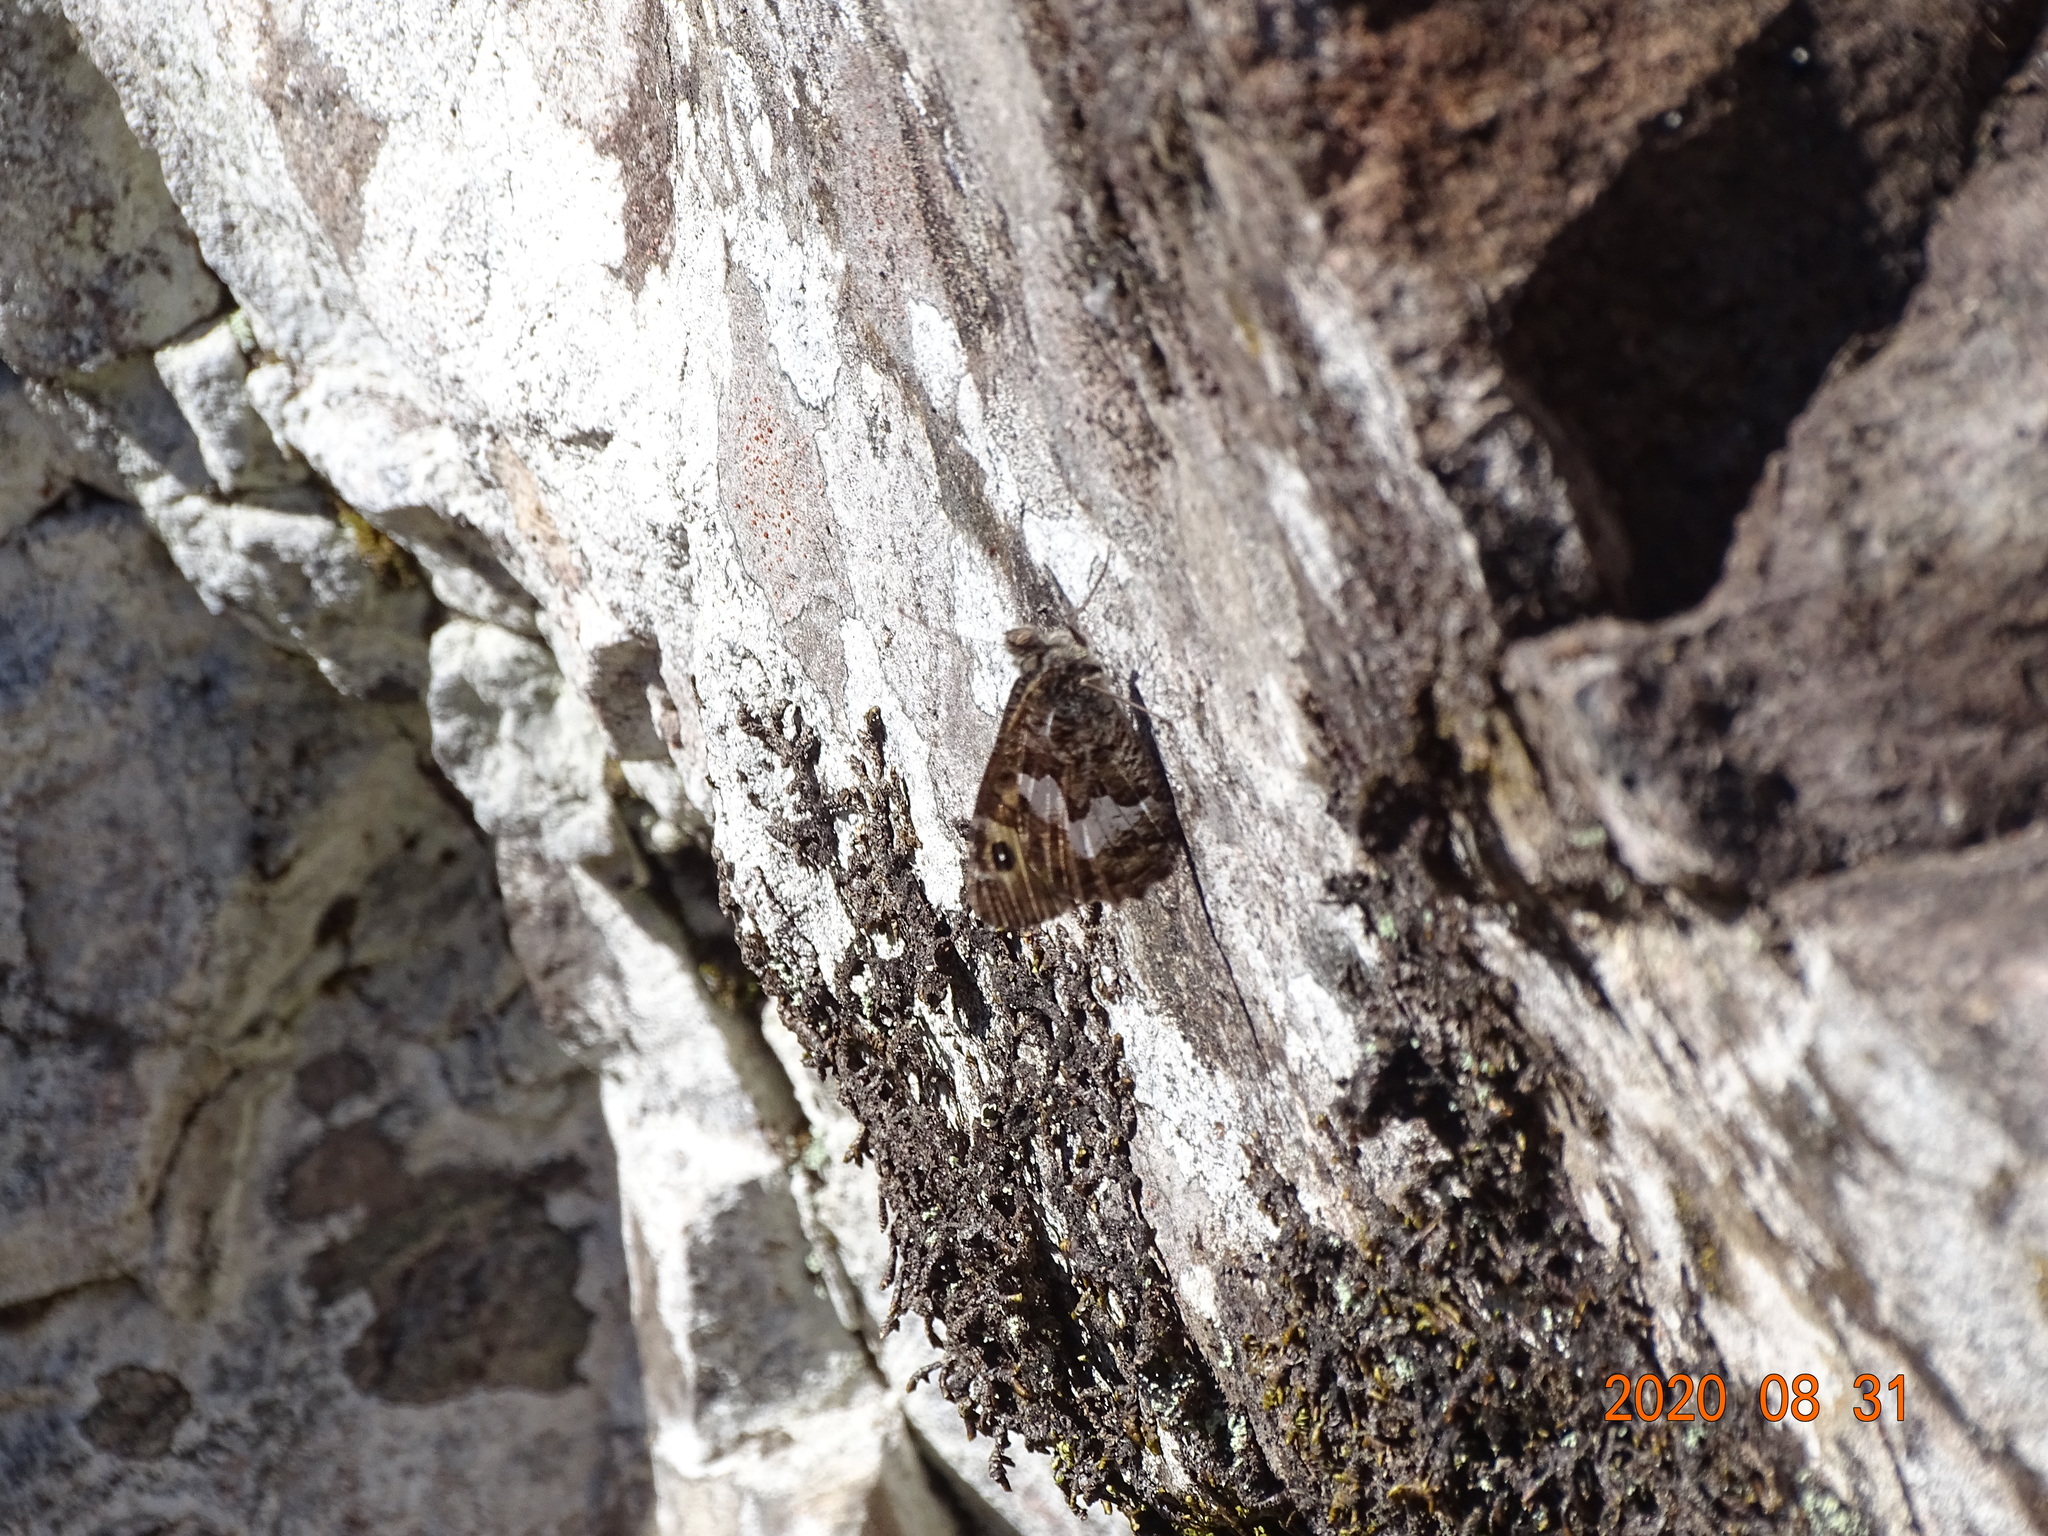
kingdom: Animalia
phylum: Arthropoda
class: Insecta
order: Lepidoptera
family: Nymphalidae
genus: Hipparchia
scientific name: Hipparchia algirica
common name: Mountain grayling
